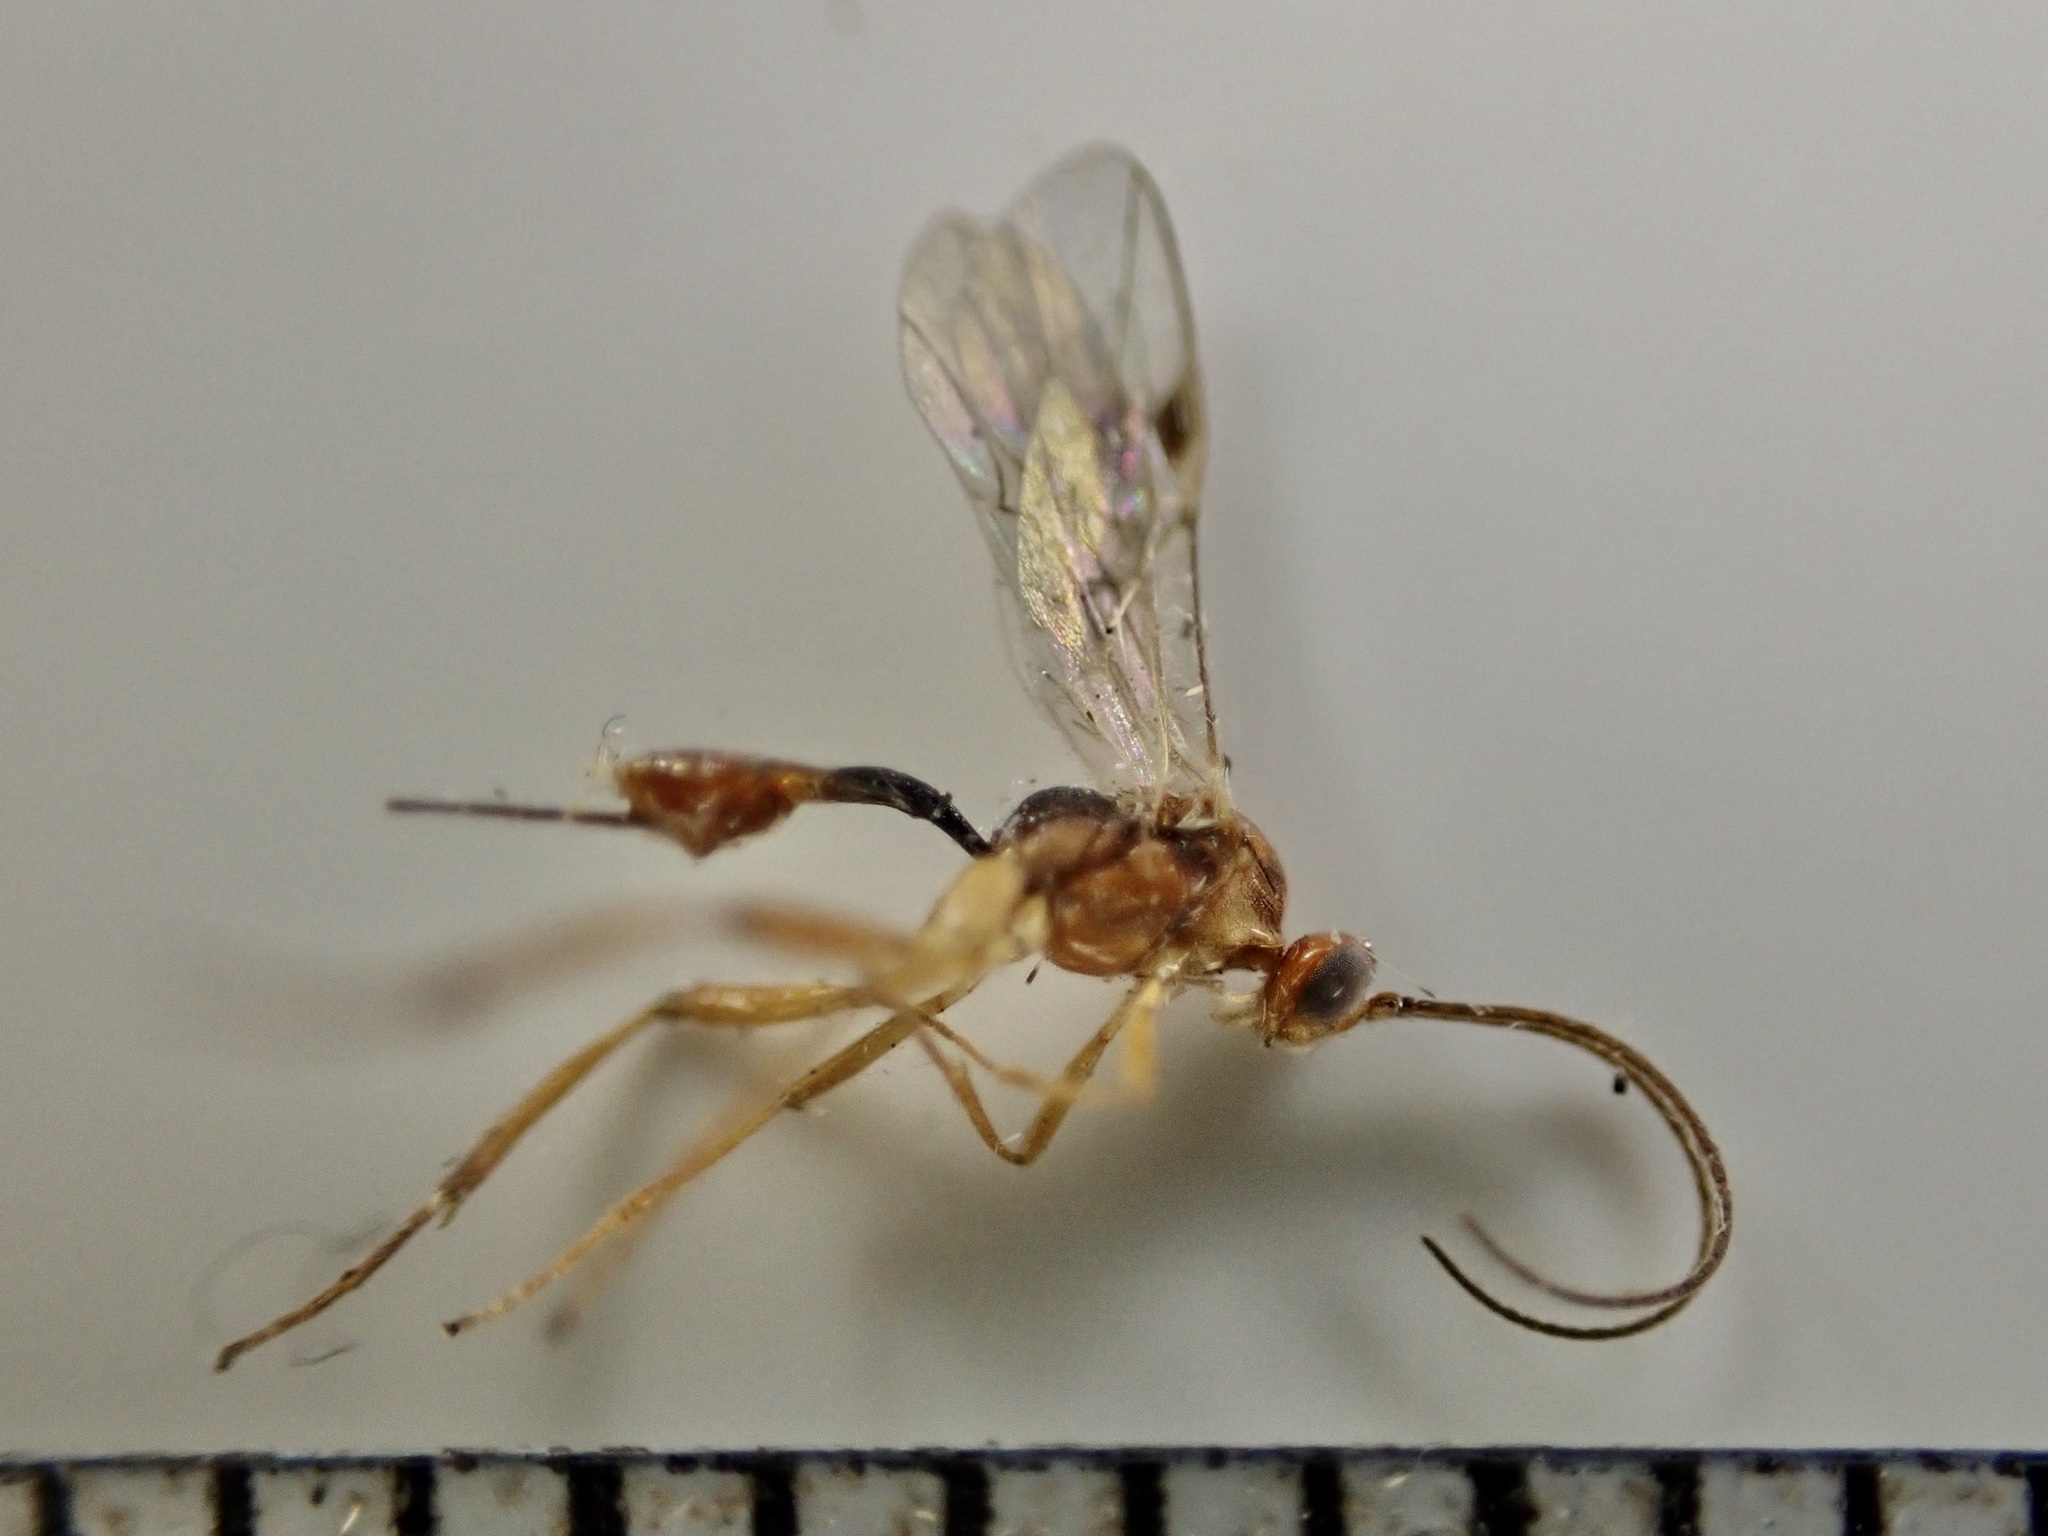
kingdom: Animalia
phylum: Arthropoda
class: Insecta
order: Hymenoptera
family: Braconidae
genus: Meteorus
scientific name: Meteorus pulchricornis
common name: Braconid wasp
